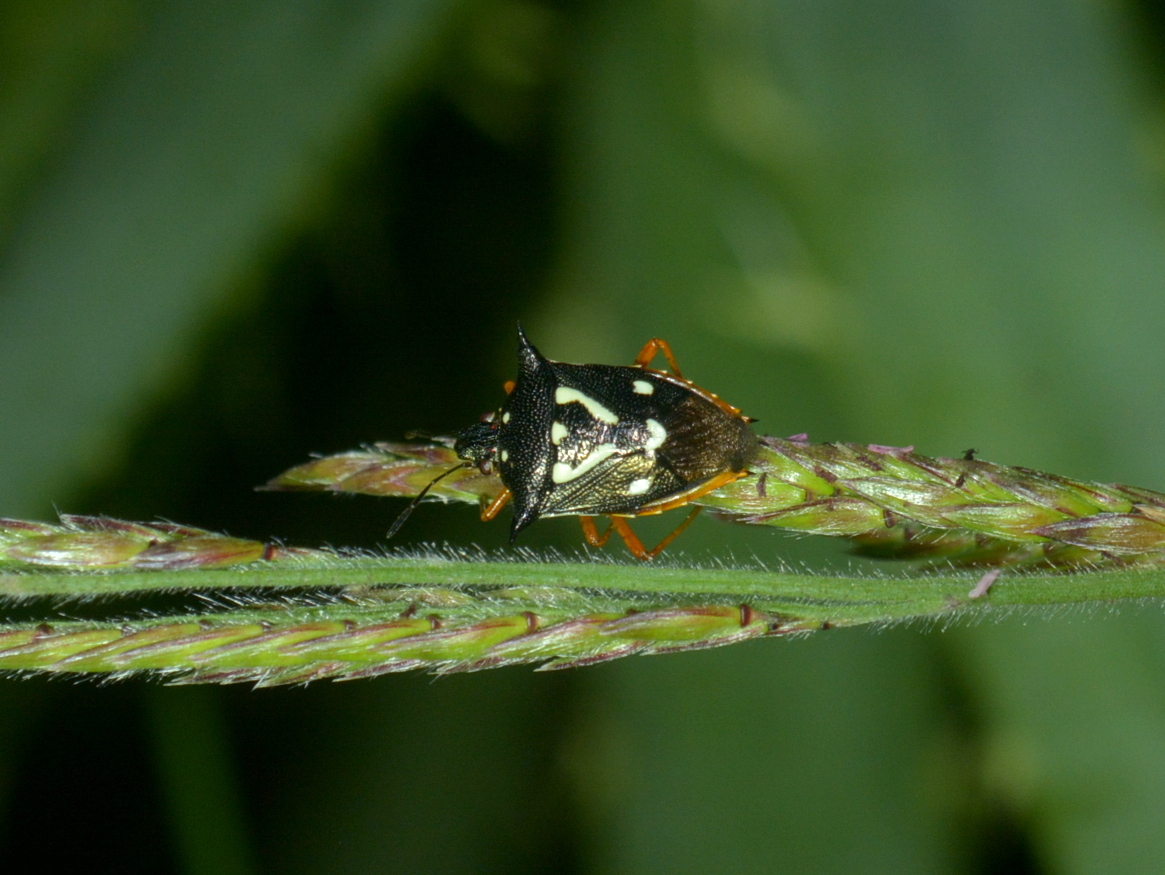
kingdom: Animalia
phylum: Arthropoda
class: Insecta
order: Hemiptera
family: Pentatomidae
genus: Mormidea
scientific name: Mormidea v-luteum
